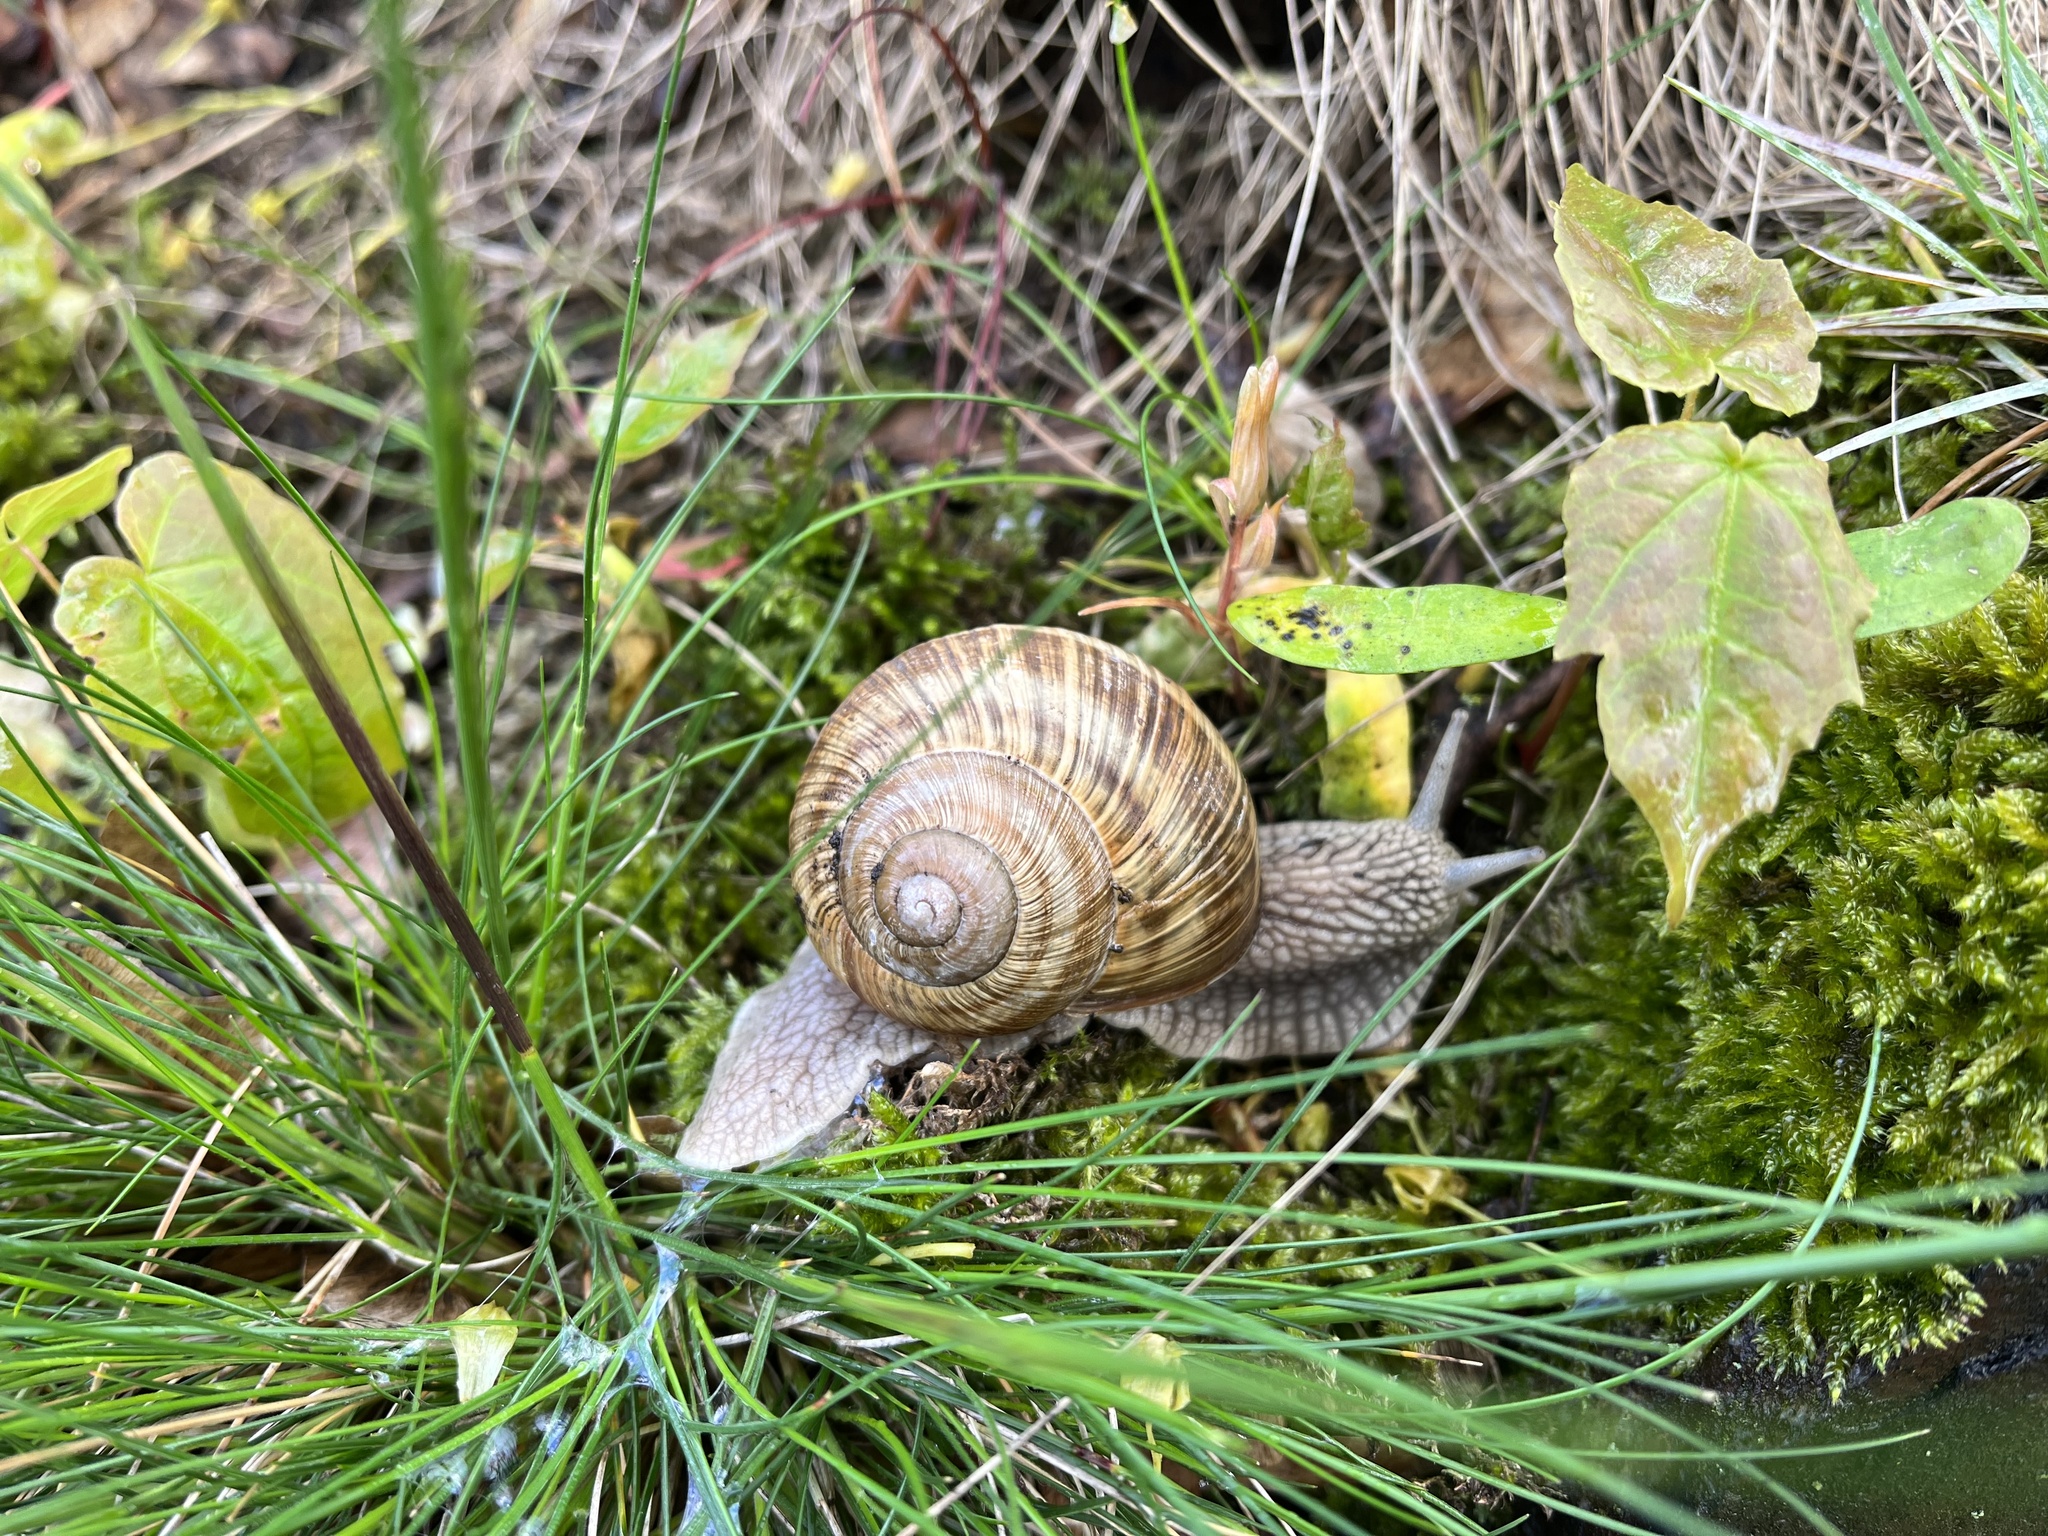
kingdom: Animalia
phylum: Mollusca
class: Gastropoda
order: Stylommatophora
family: Helicidae
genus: Helix
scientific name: Helix pomatia
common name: Roman snail
